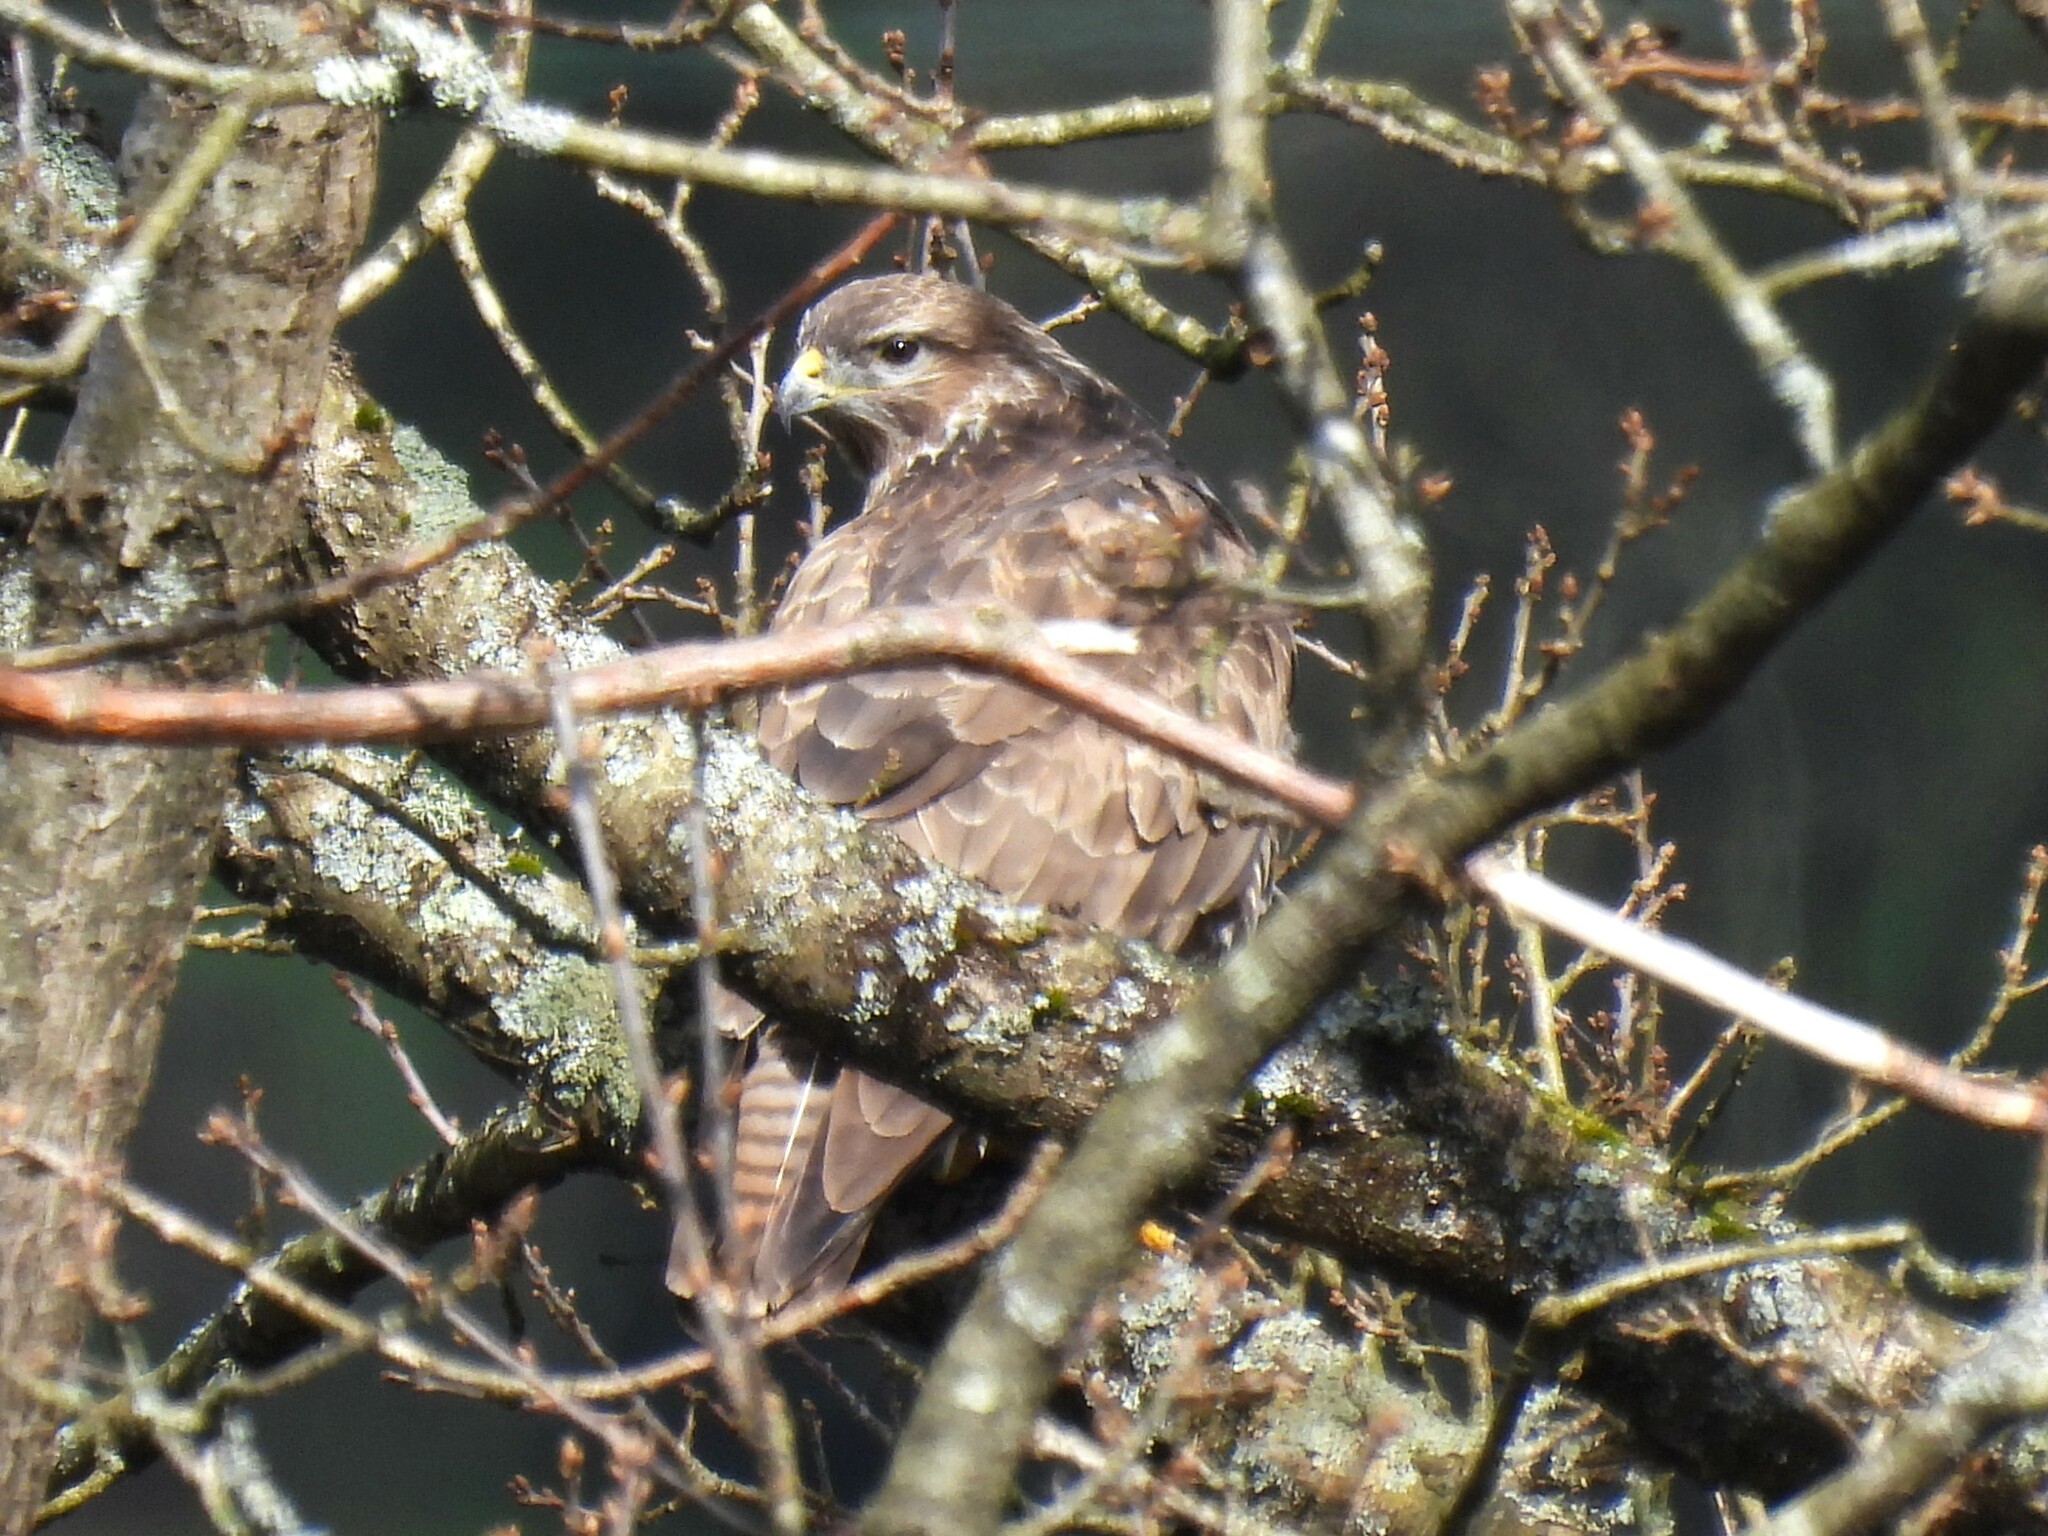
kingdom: Animalia
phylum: Chordata
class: Aves
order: Accipitriformes
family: Accipitridae
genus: Buteo
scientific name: Buteo buteo
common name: Common buzzard
